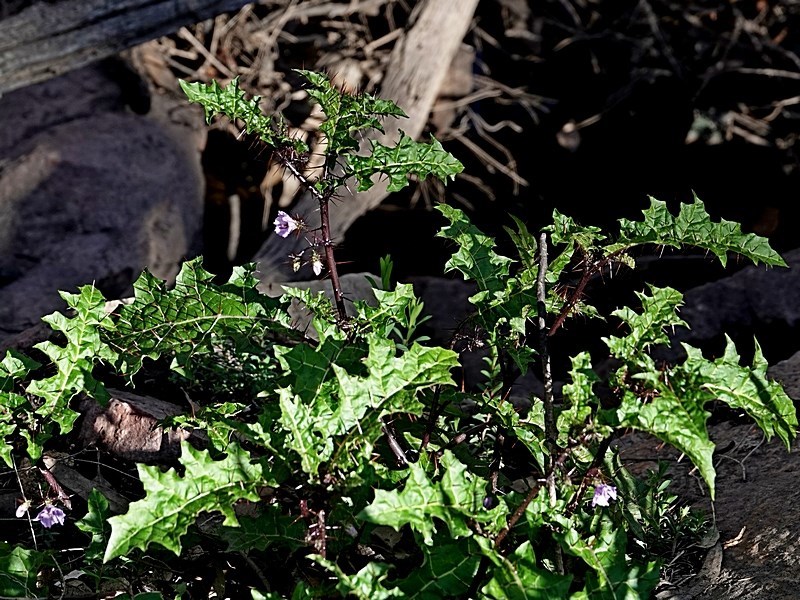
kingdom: Plantae
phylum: Tracheophyta
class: Magnoliopsida
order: Solanales
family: Solanaceae
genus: Solanum
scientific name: Solanum prinophyllum
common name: Forest nightshade
